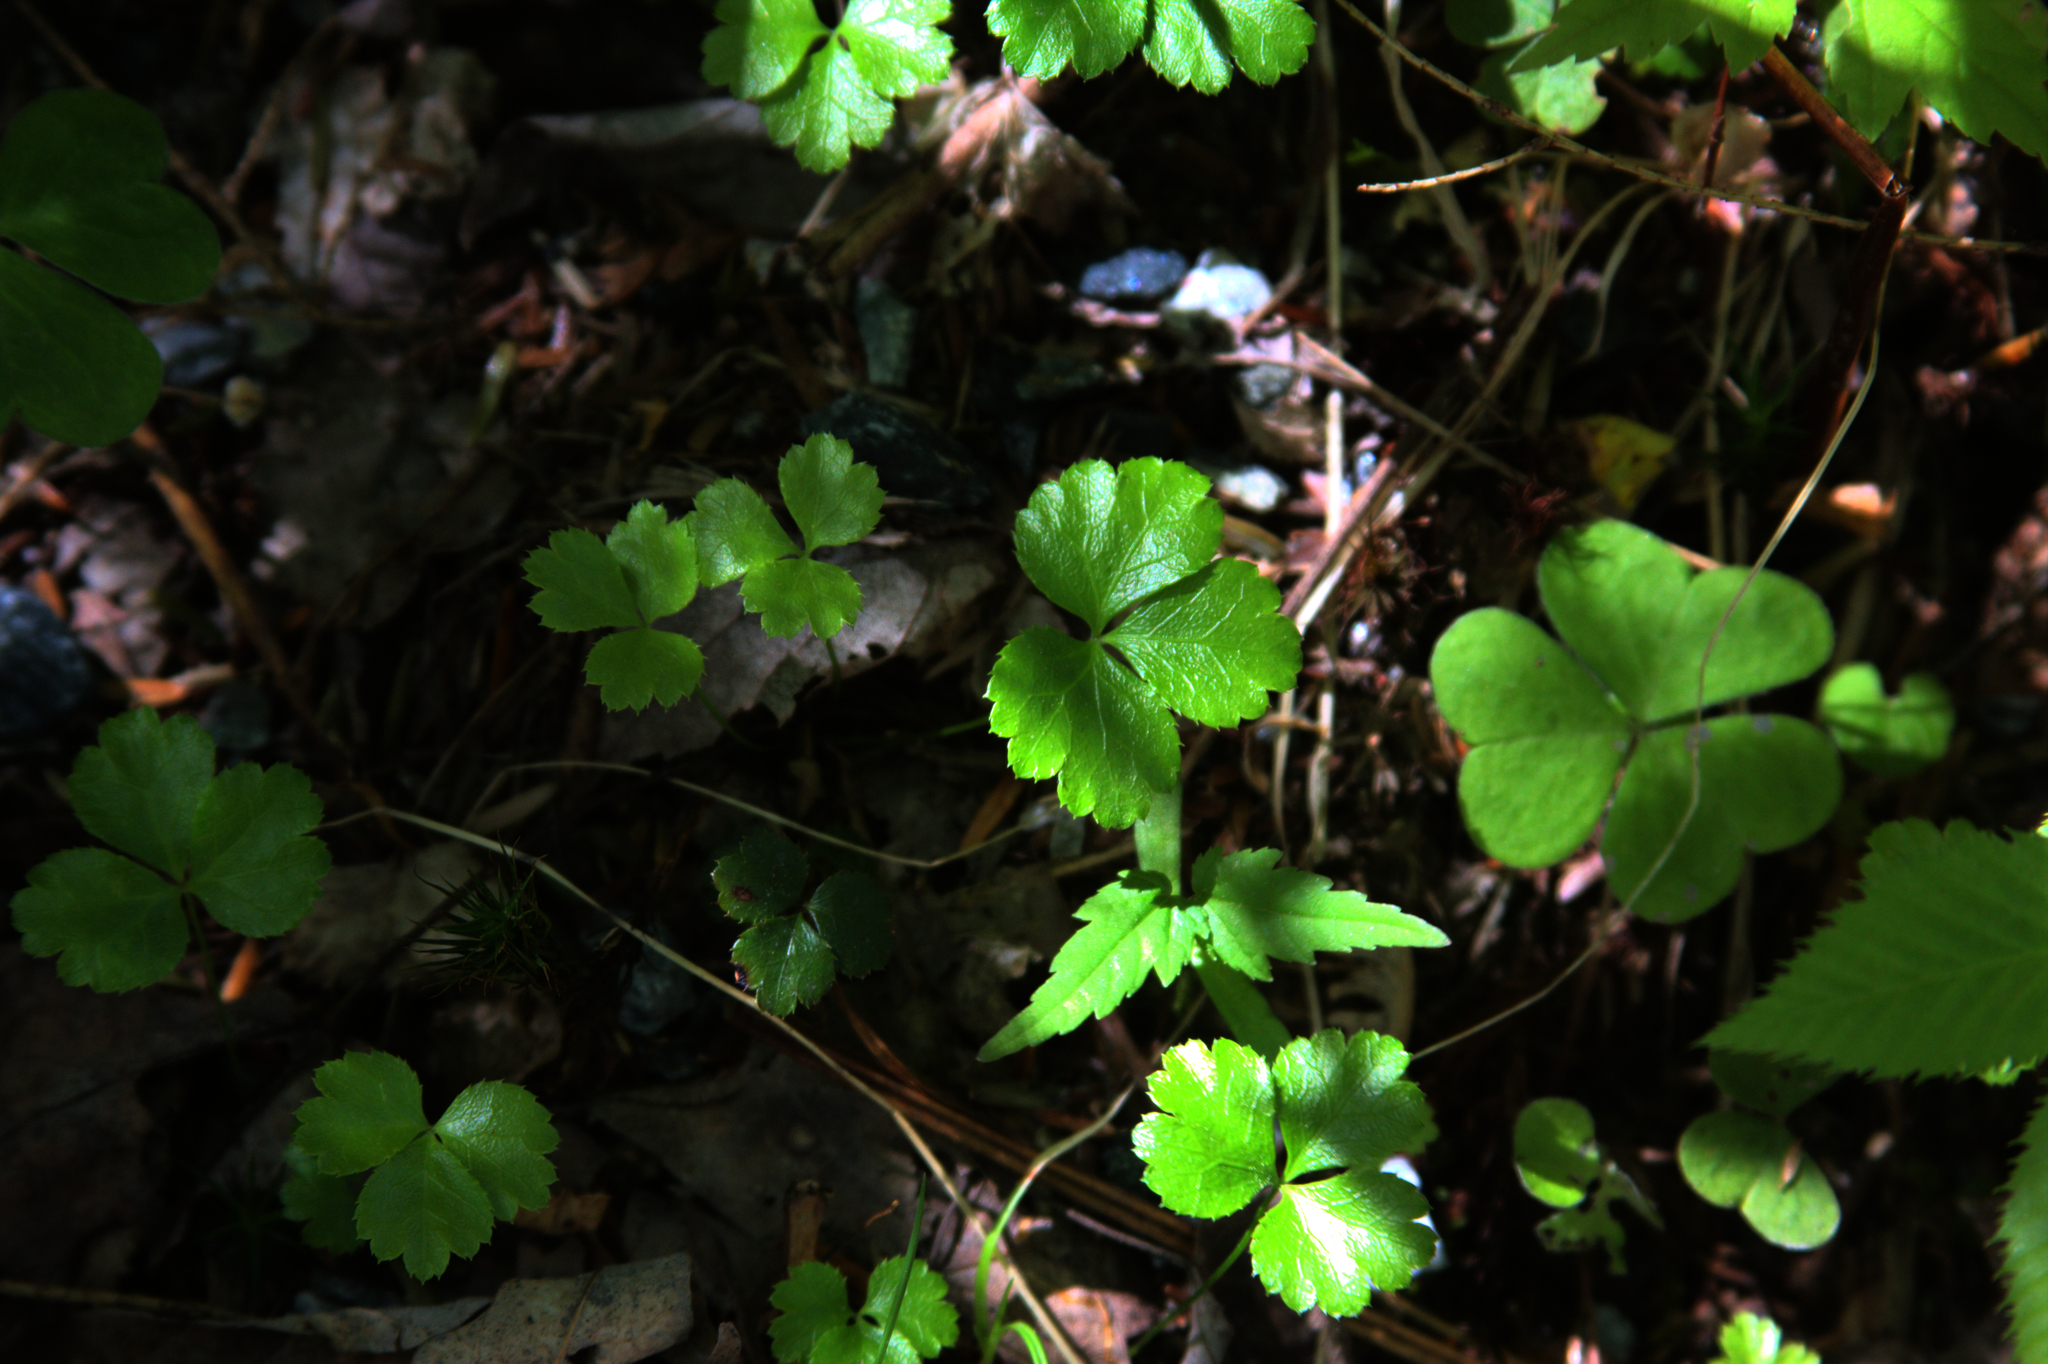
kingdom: Plantae
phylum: Tracheophyta
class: Magnoliopsida
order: Ranunculales
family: Ranunculaceae
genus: Coptis
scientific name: Coptis trifolia
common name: Canker-root
